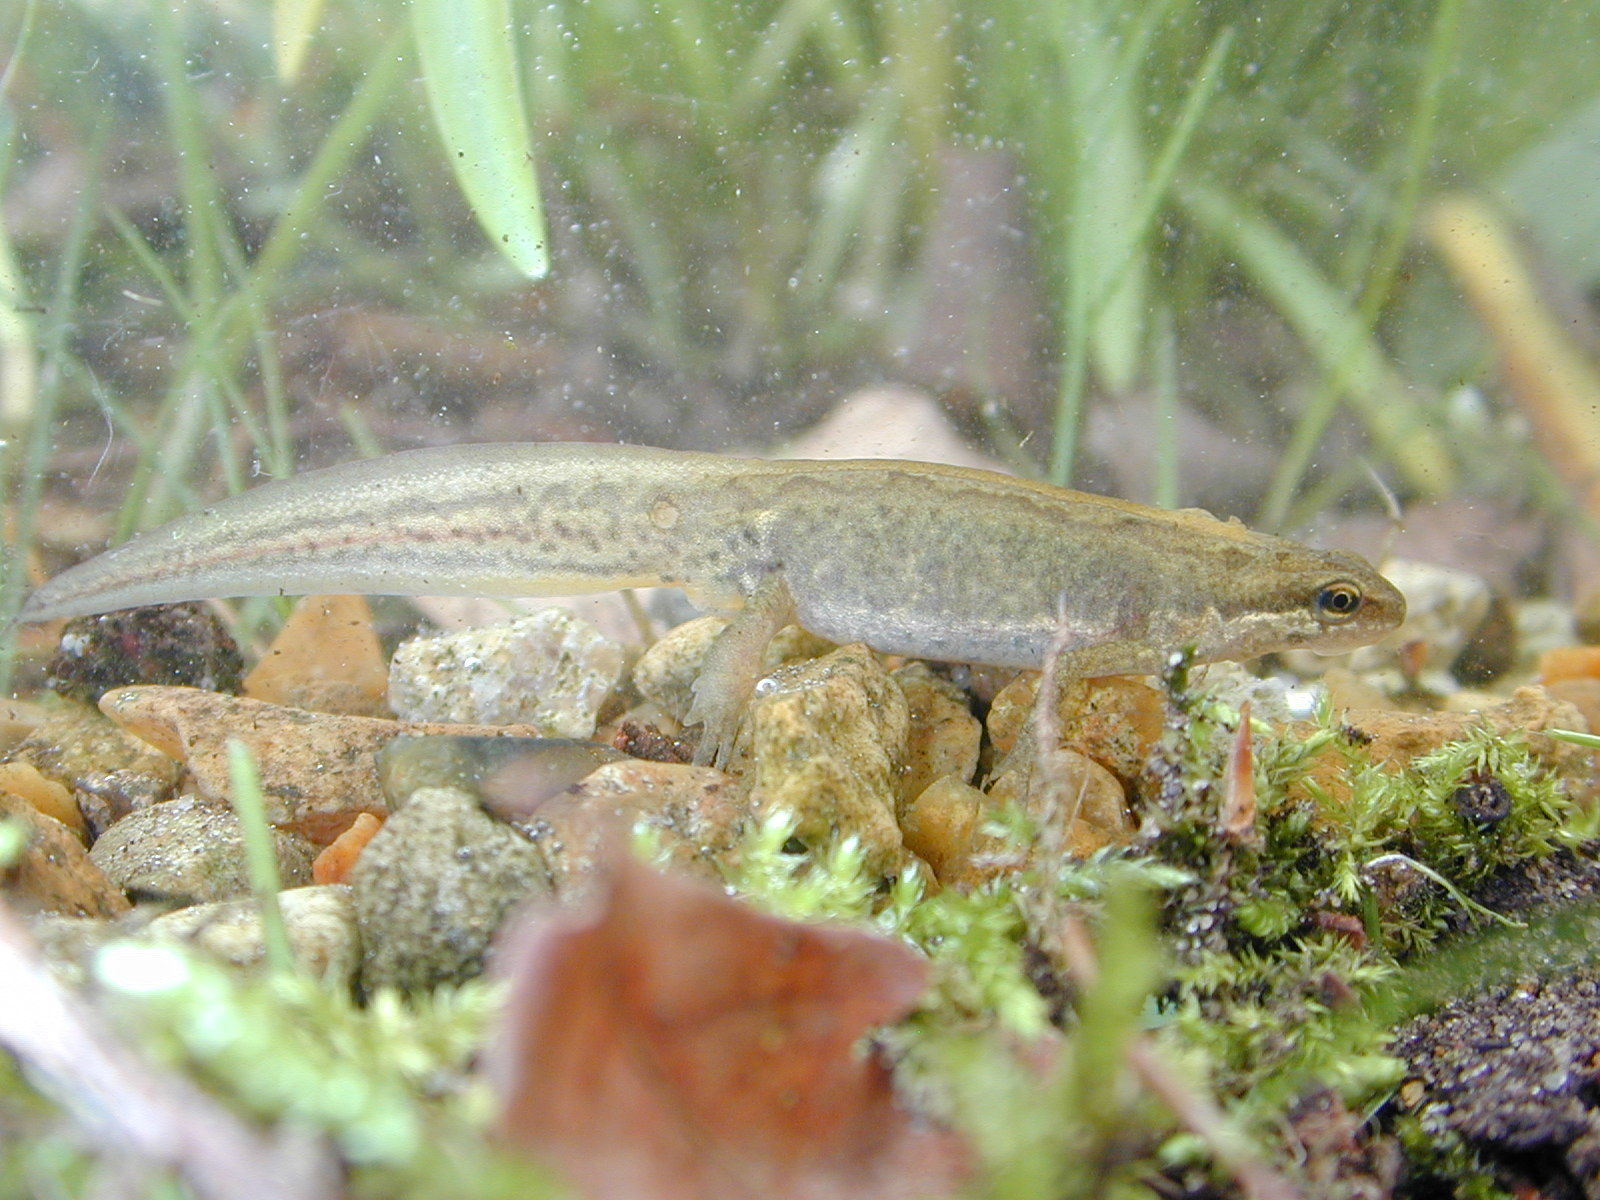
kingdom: Animalia
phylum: Chordata
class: Amphibia
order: Caudata
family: Salamandridae
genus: Lissotriton
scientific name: Lissotriton helveticus
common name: Palmate newt
